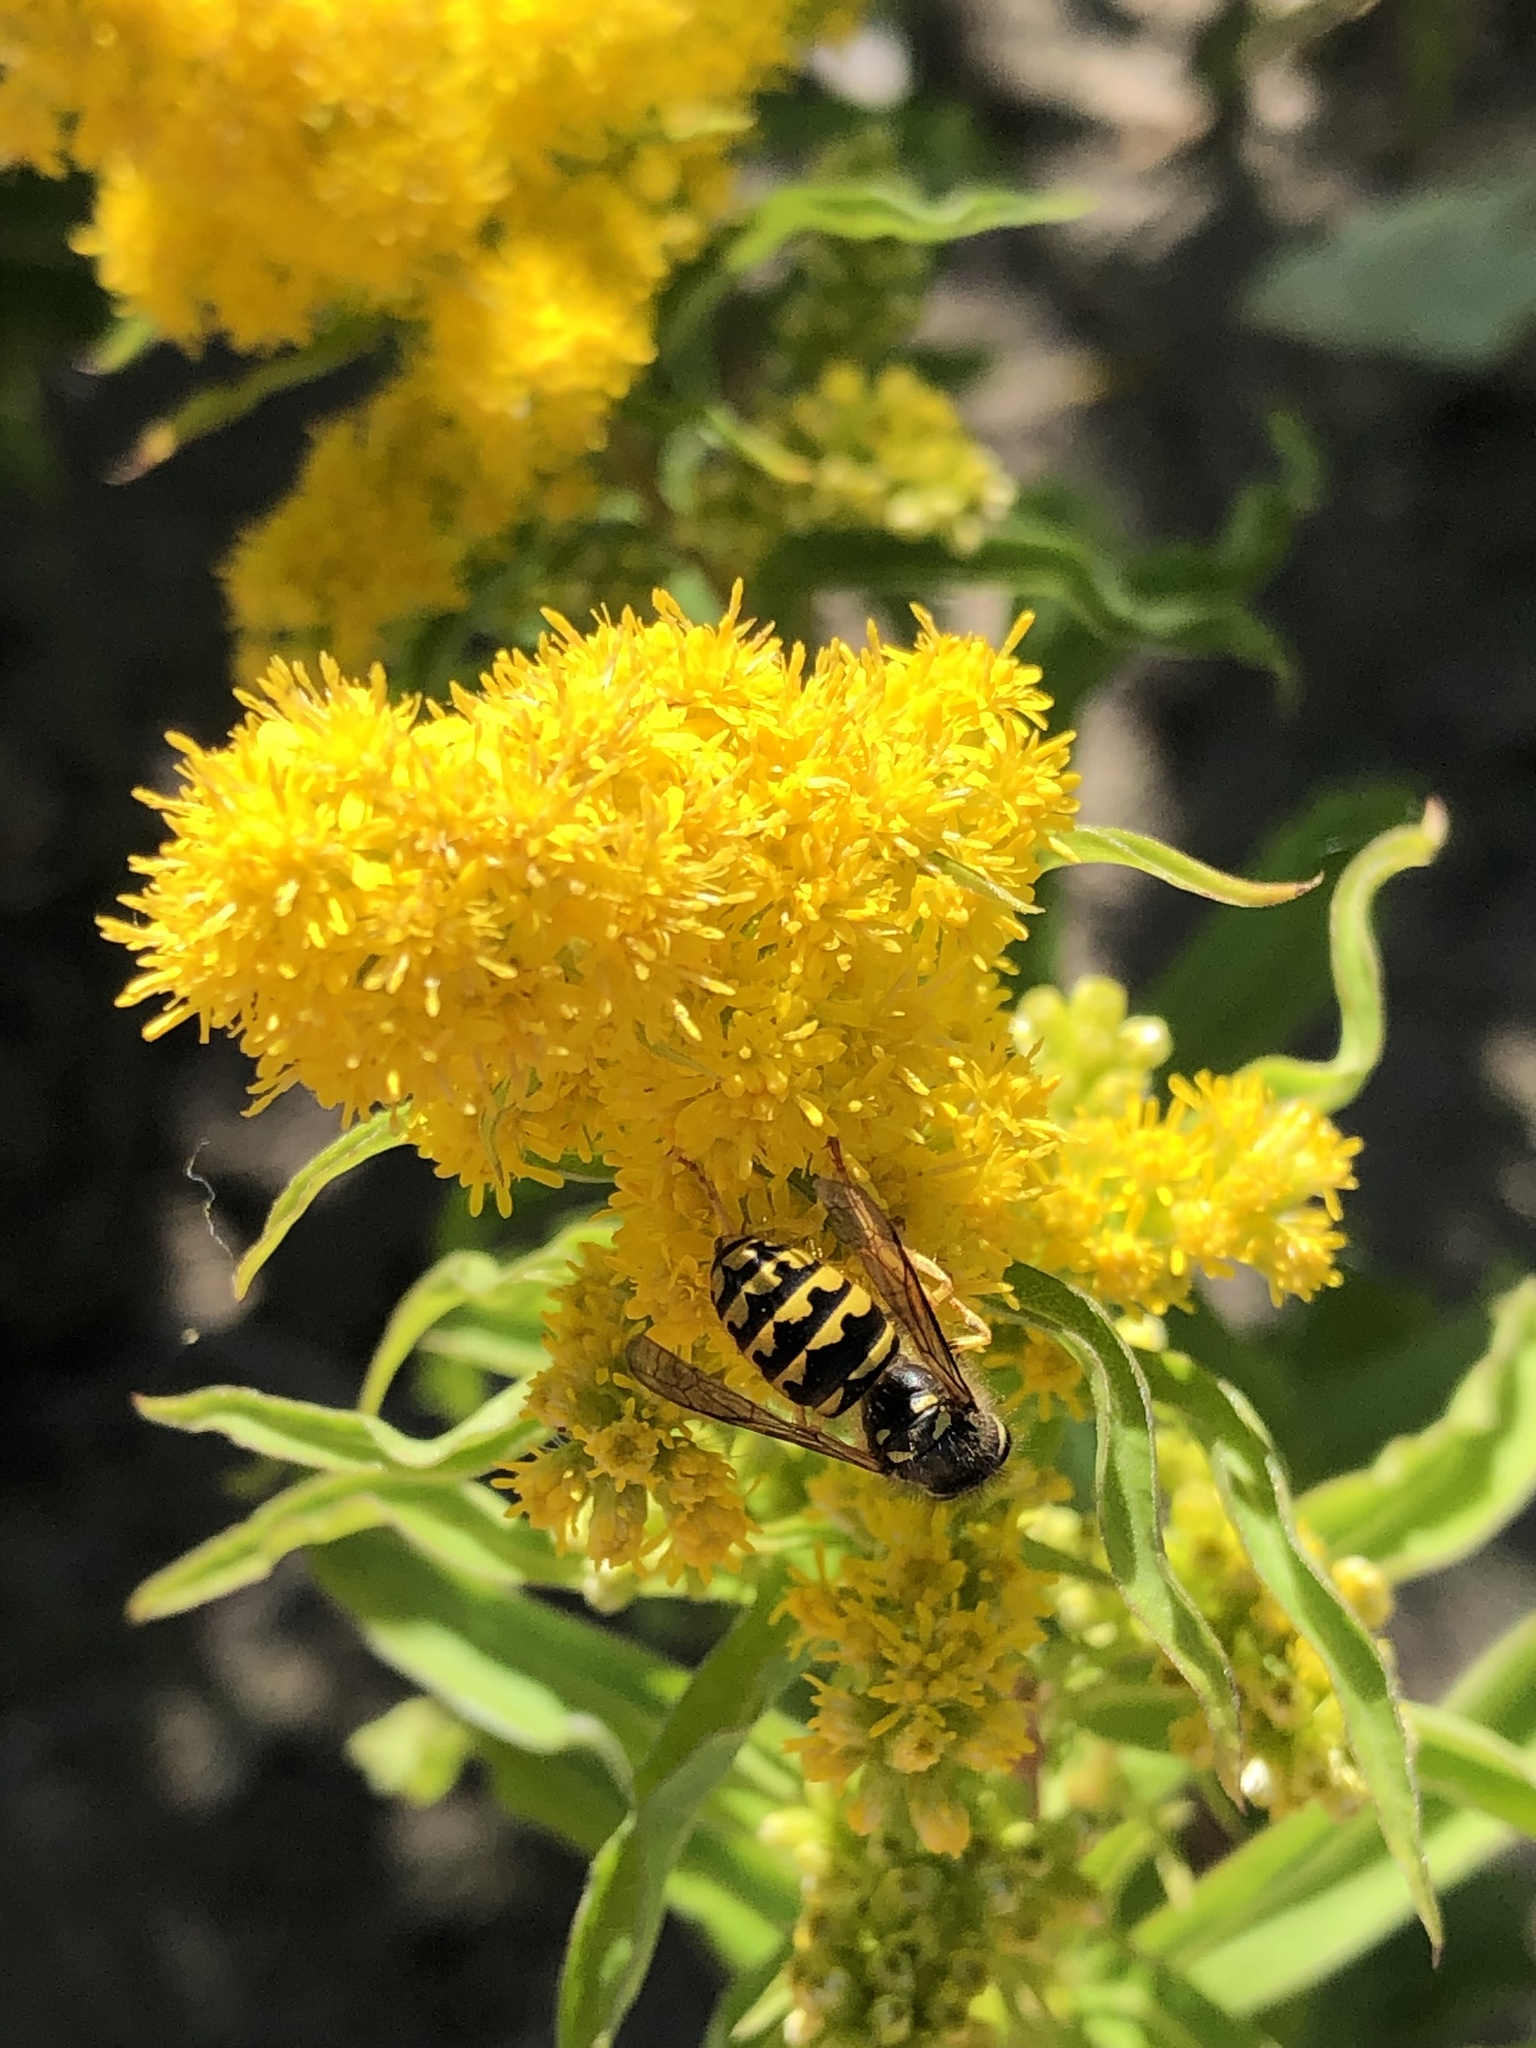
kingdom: Animalia
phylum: Arthropoda
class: Insecta
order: Hymenoptera
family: Vespidae
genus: Dolichovespula
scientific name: Dolichovespula arenaria
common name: Aerial yellowjacket
